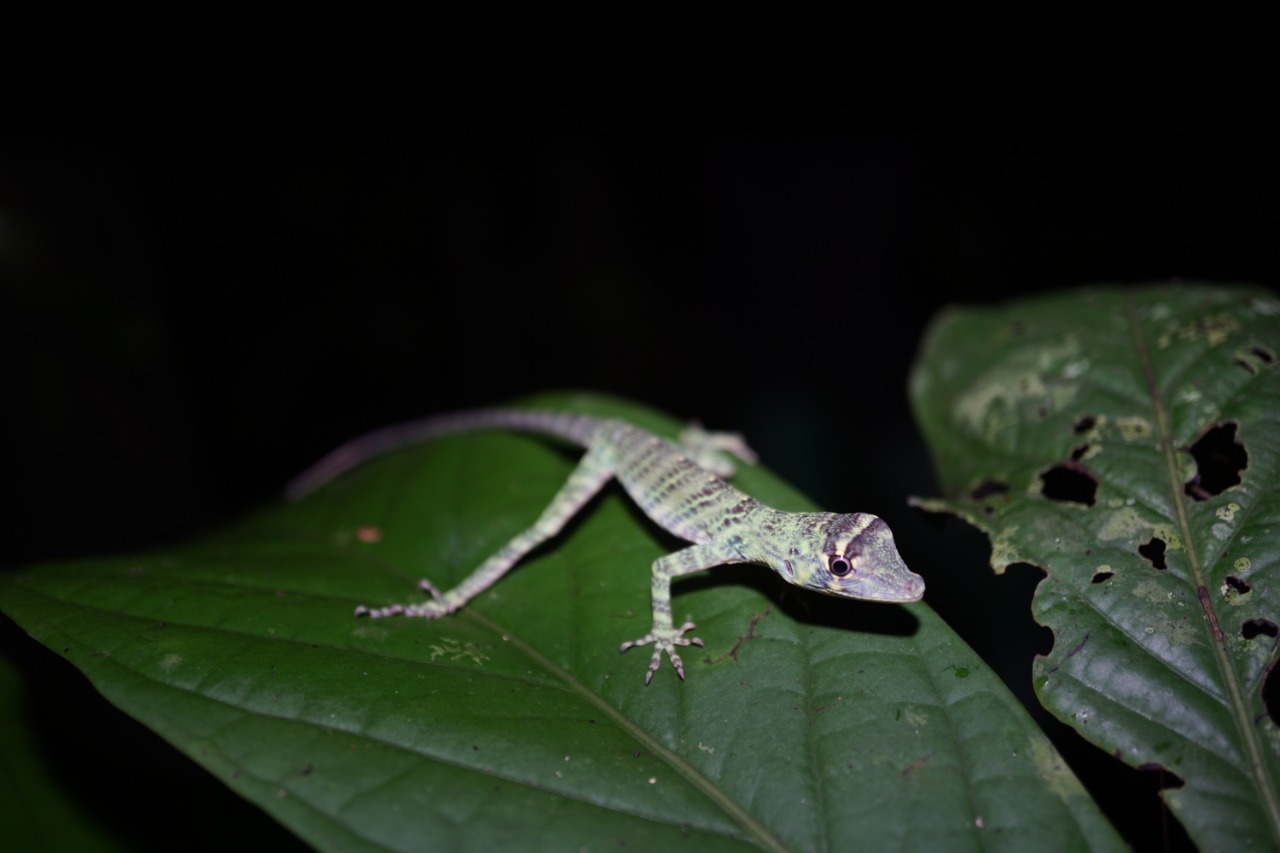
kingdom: Animalia
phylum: Chordata
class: Squamata
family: Dactyloidae
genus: Anolis
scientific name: Anolis frenatus
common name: Bridled anole
